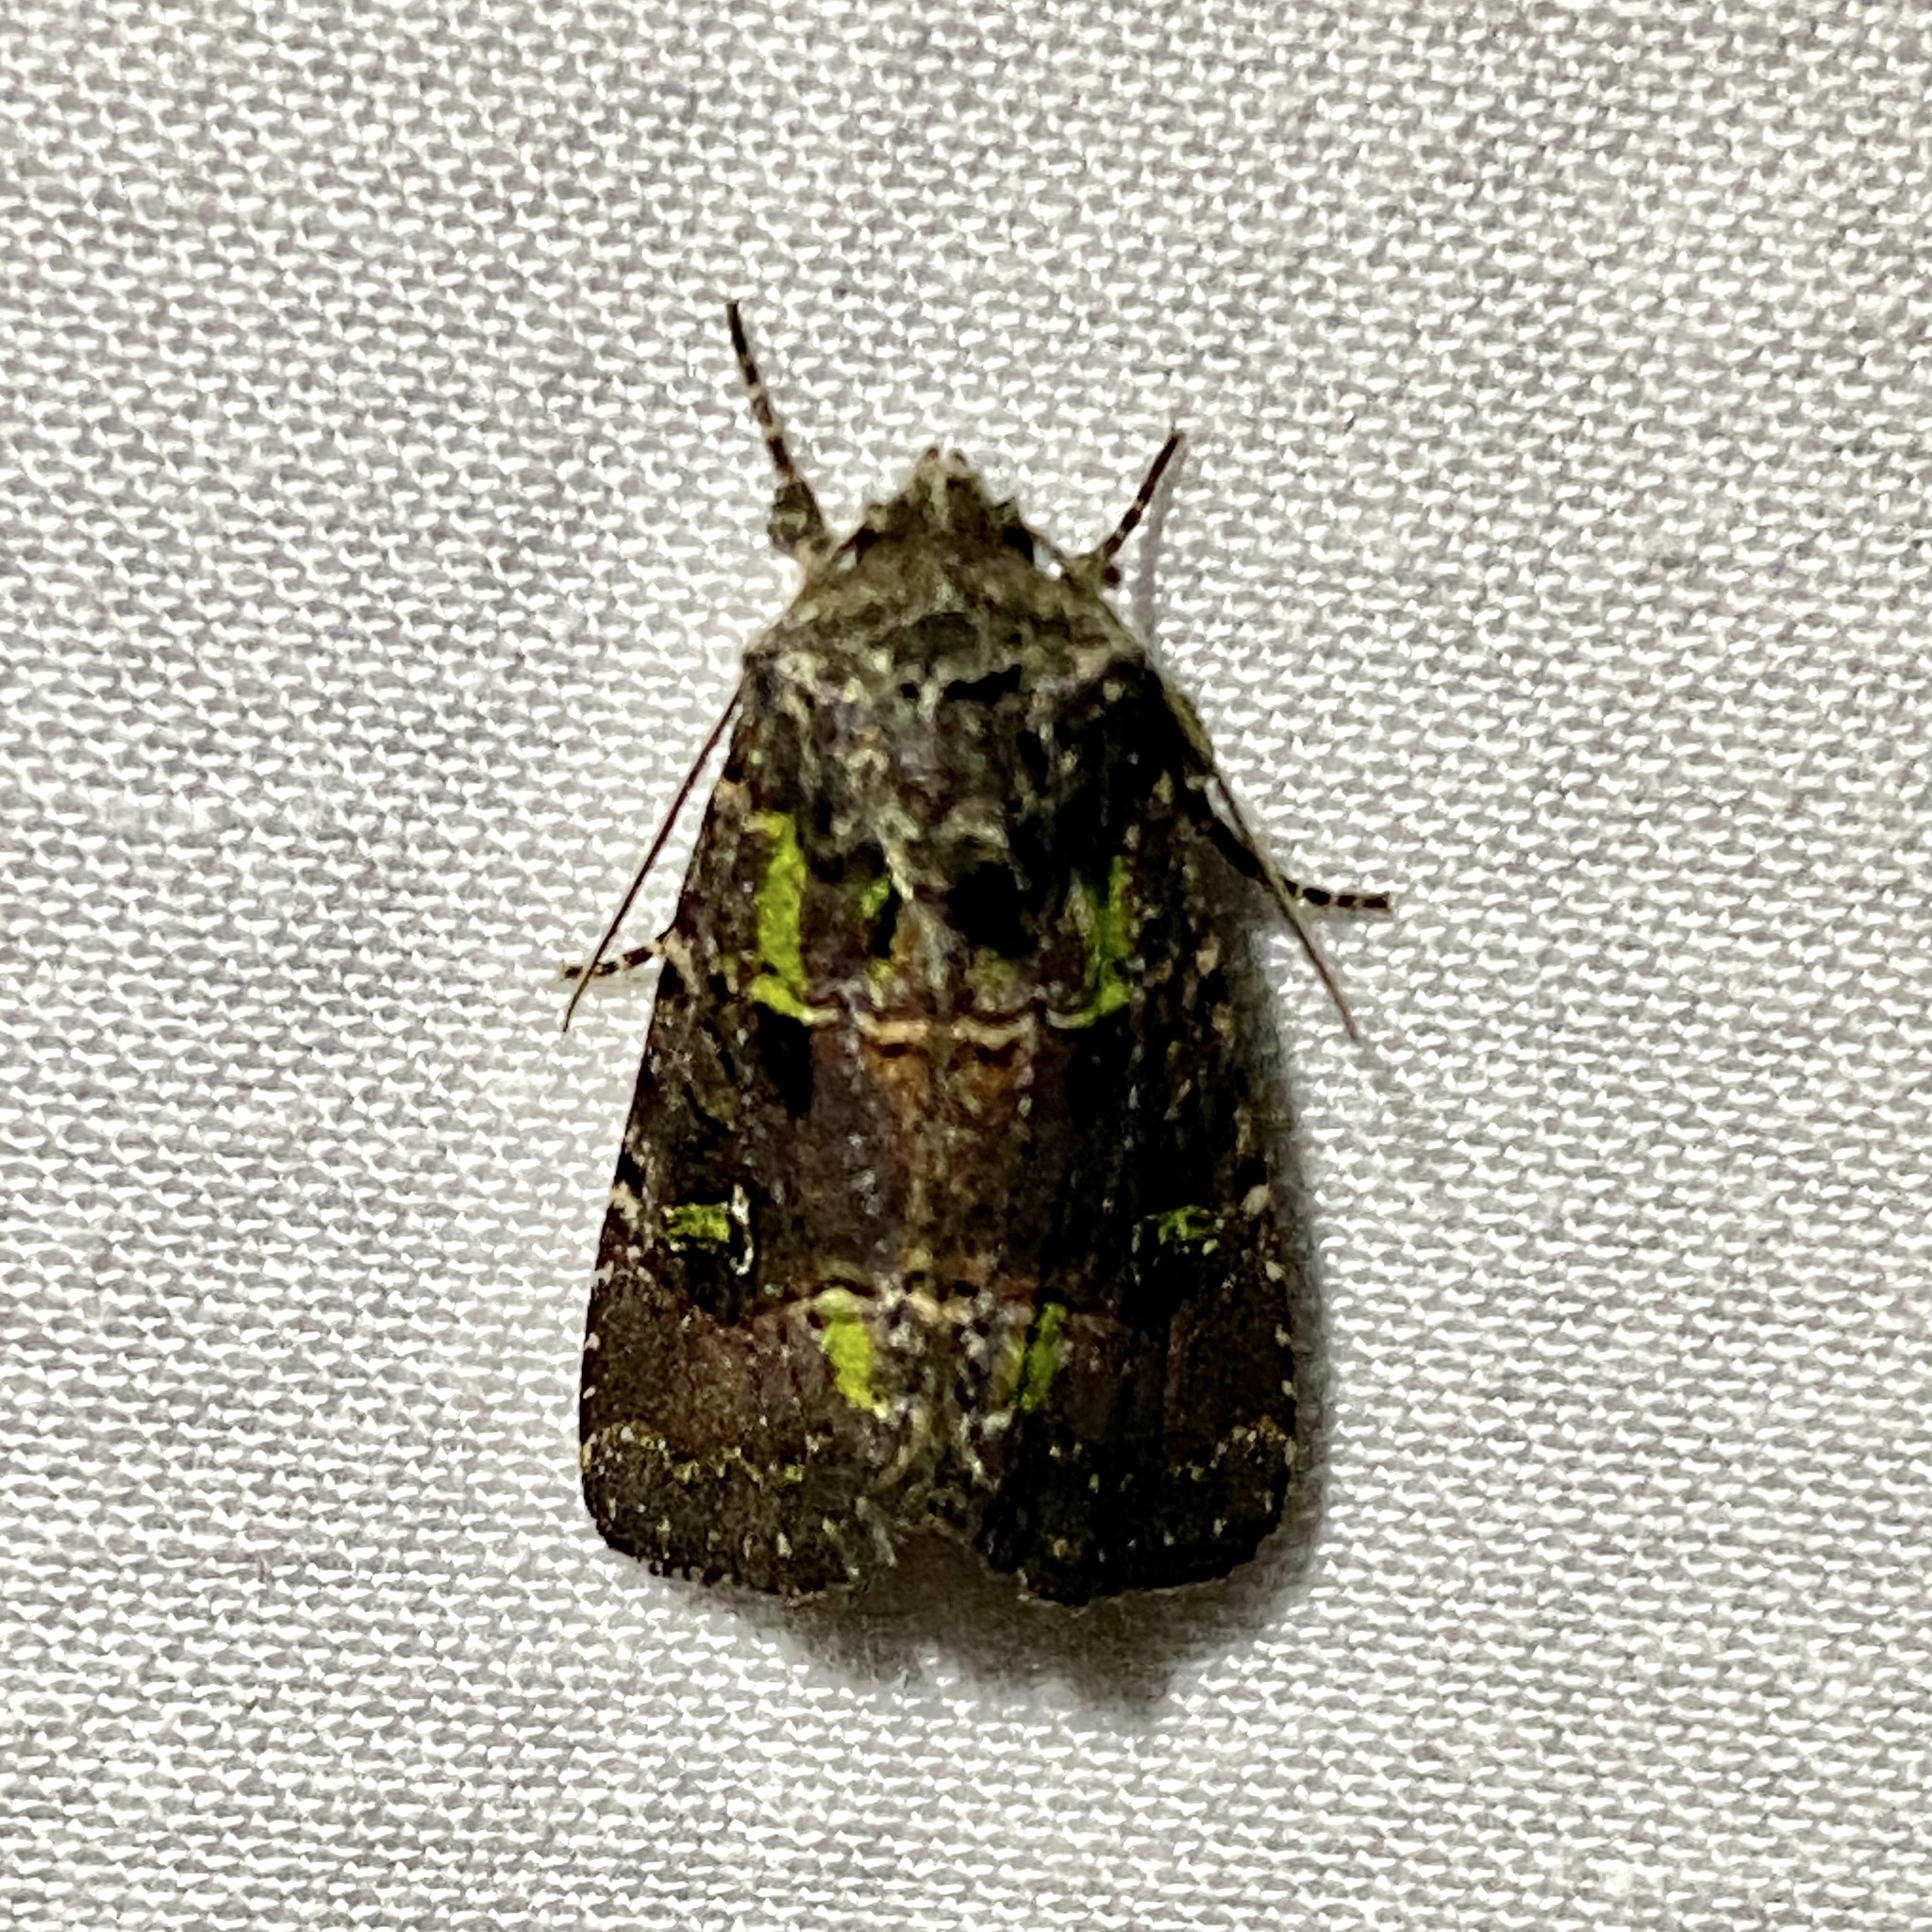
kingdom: Animalia
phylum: Arthropoda
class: Insecta
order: Lepidoptera
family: Noctuidae
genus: Lacinipolia
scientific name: Lacinipolia renigera
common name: Kidney-spotted minor
